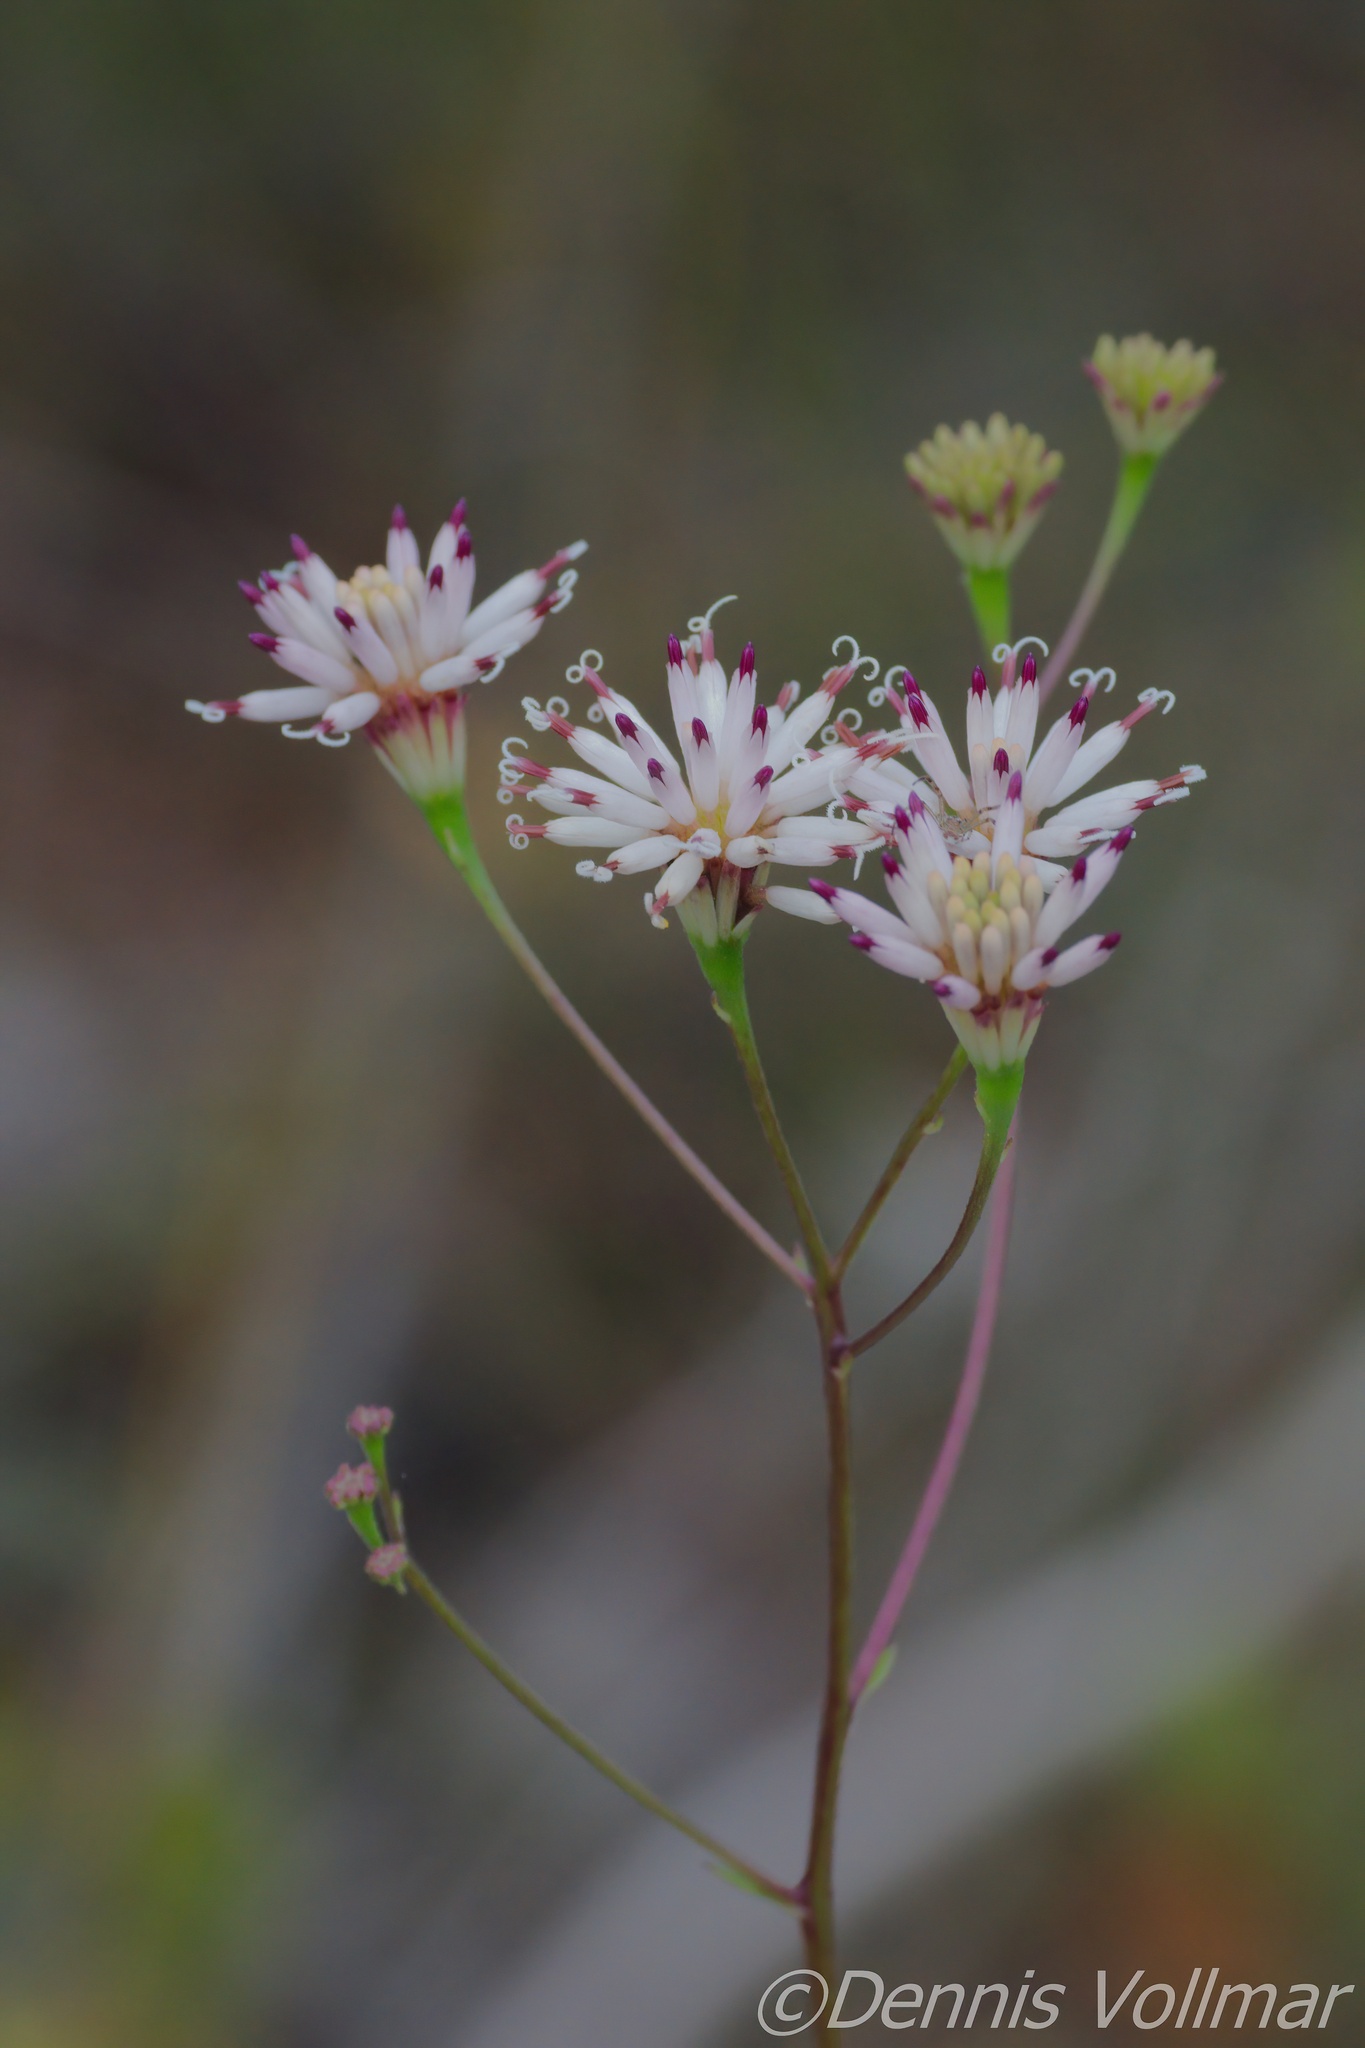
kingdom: Plantae
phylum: Tracheophyta
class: Magnoliopsida
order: Asterales
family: Asteraceae
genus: Palafoxia
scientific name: Palafoxia feayi
